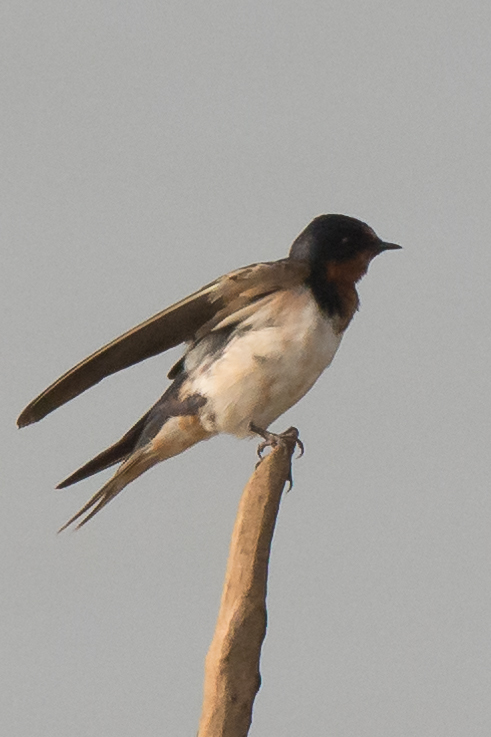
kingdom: Animalia
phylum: Chordata
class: Aves
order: Passeriformes
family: Hirundinidae
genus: Hirundo
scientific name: Hirundo rustica
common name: Barn swallow
